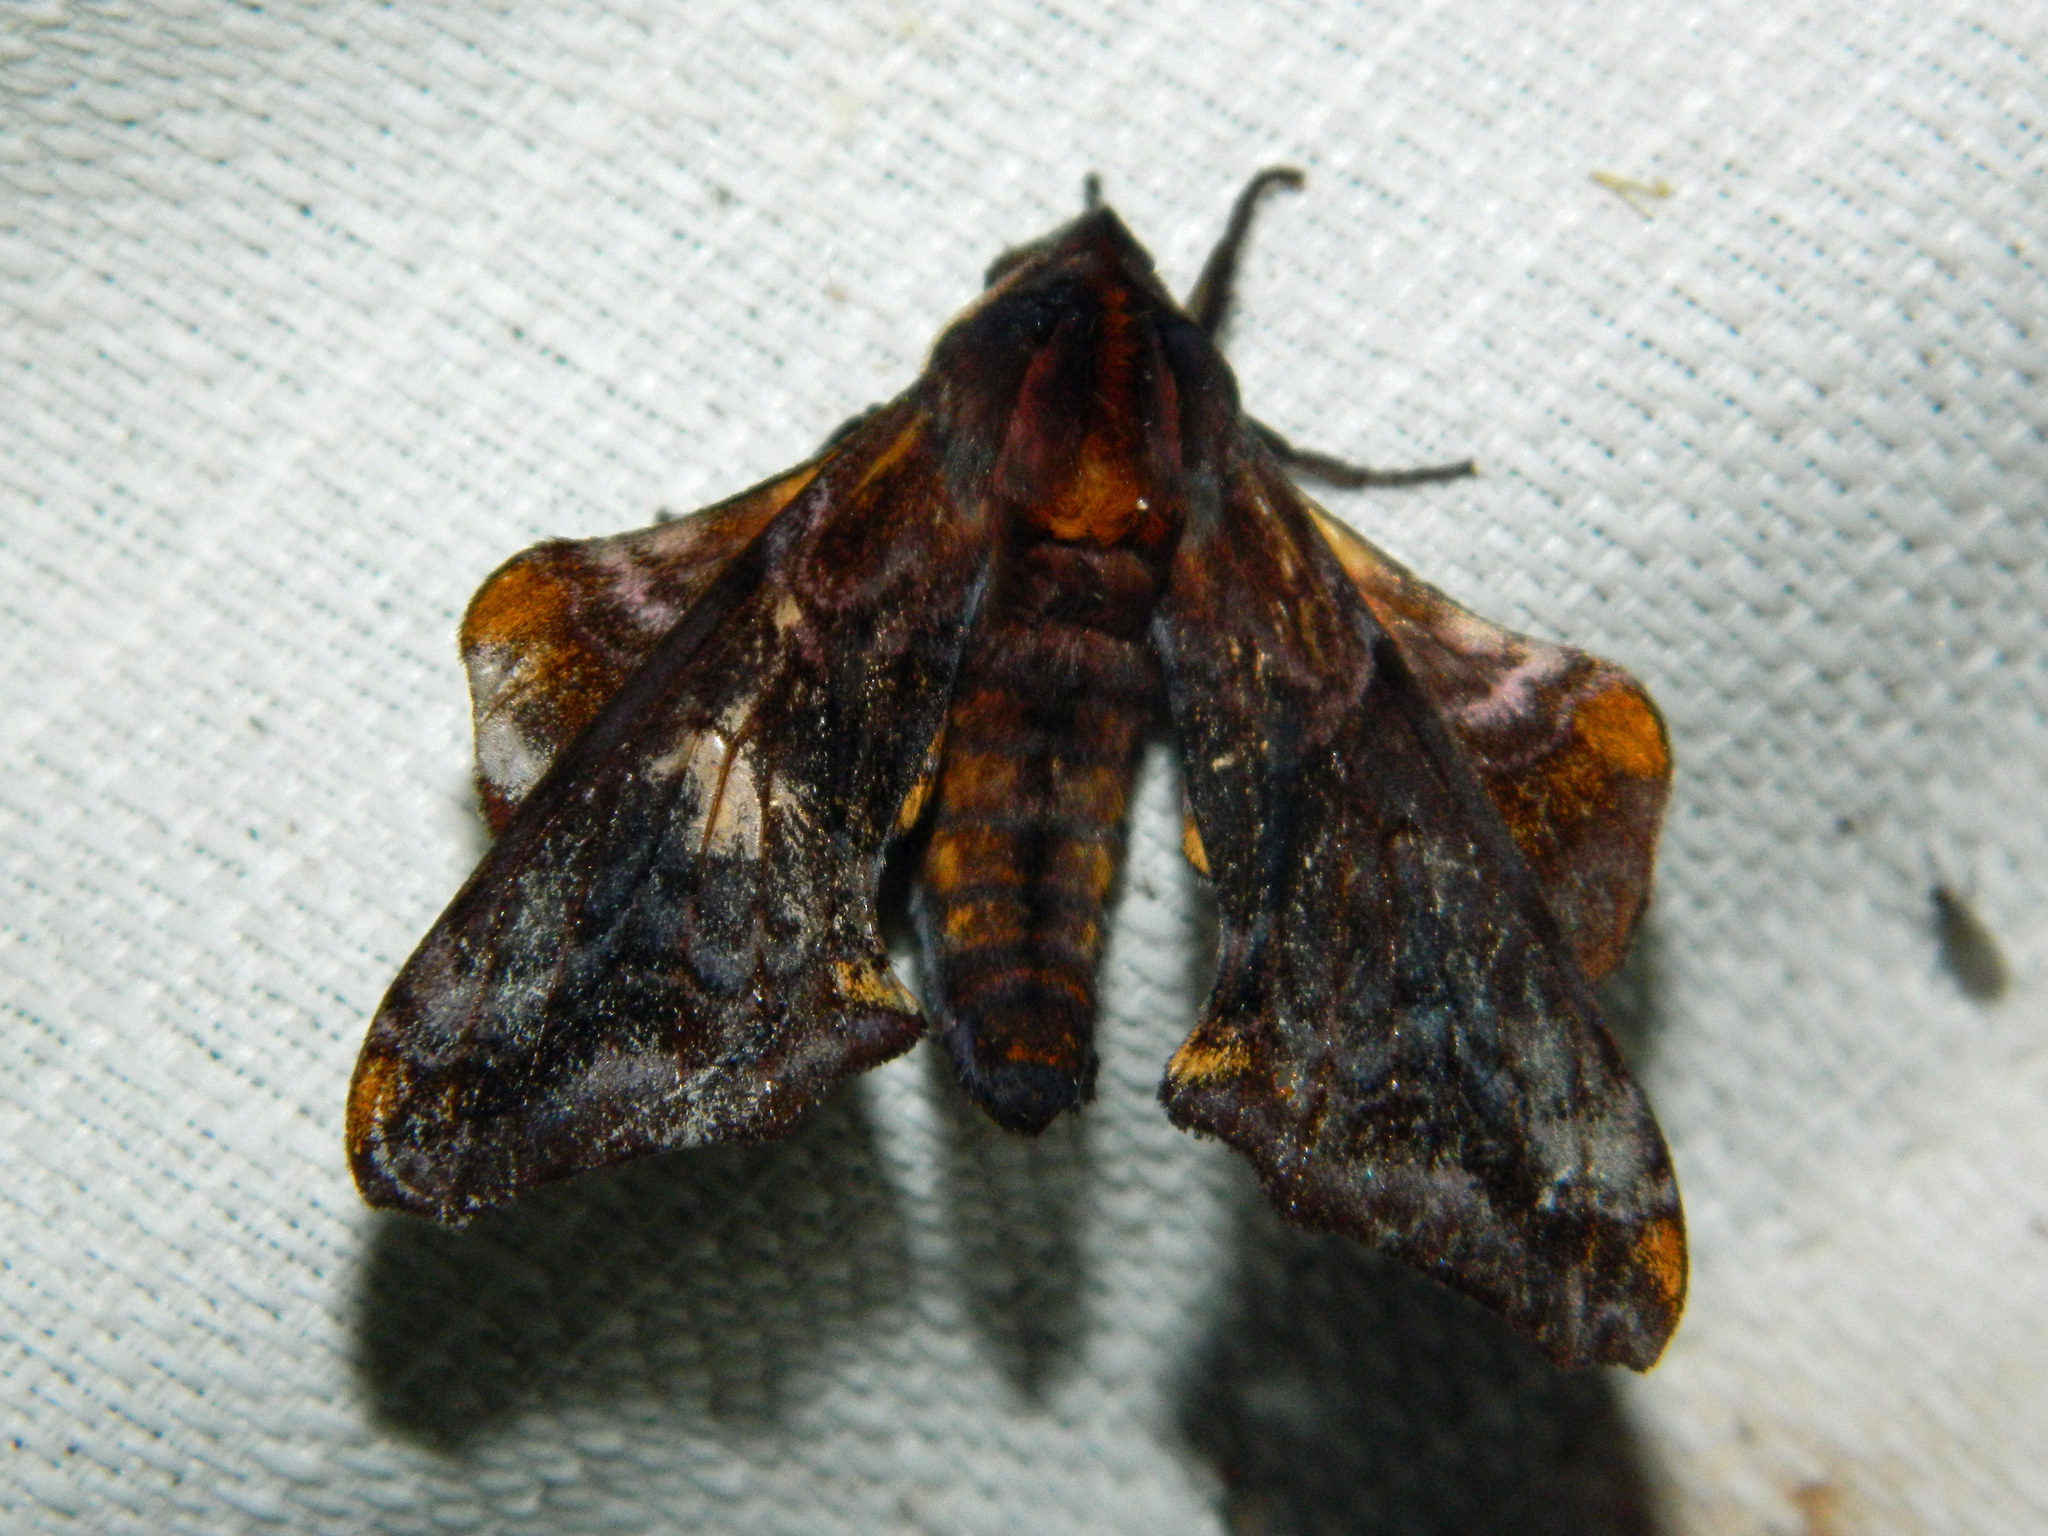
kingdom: Animalia
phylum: Arthropoda
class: Insecta
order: Lepidoptera
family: Sphingidae
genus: Paonias
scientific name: Paonias myops
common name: Small-eyed sphinx
